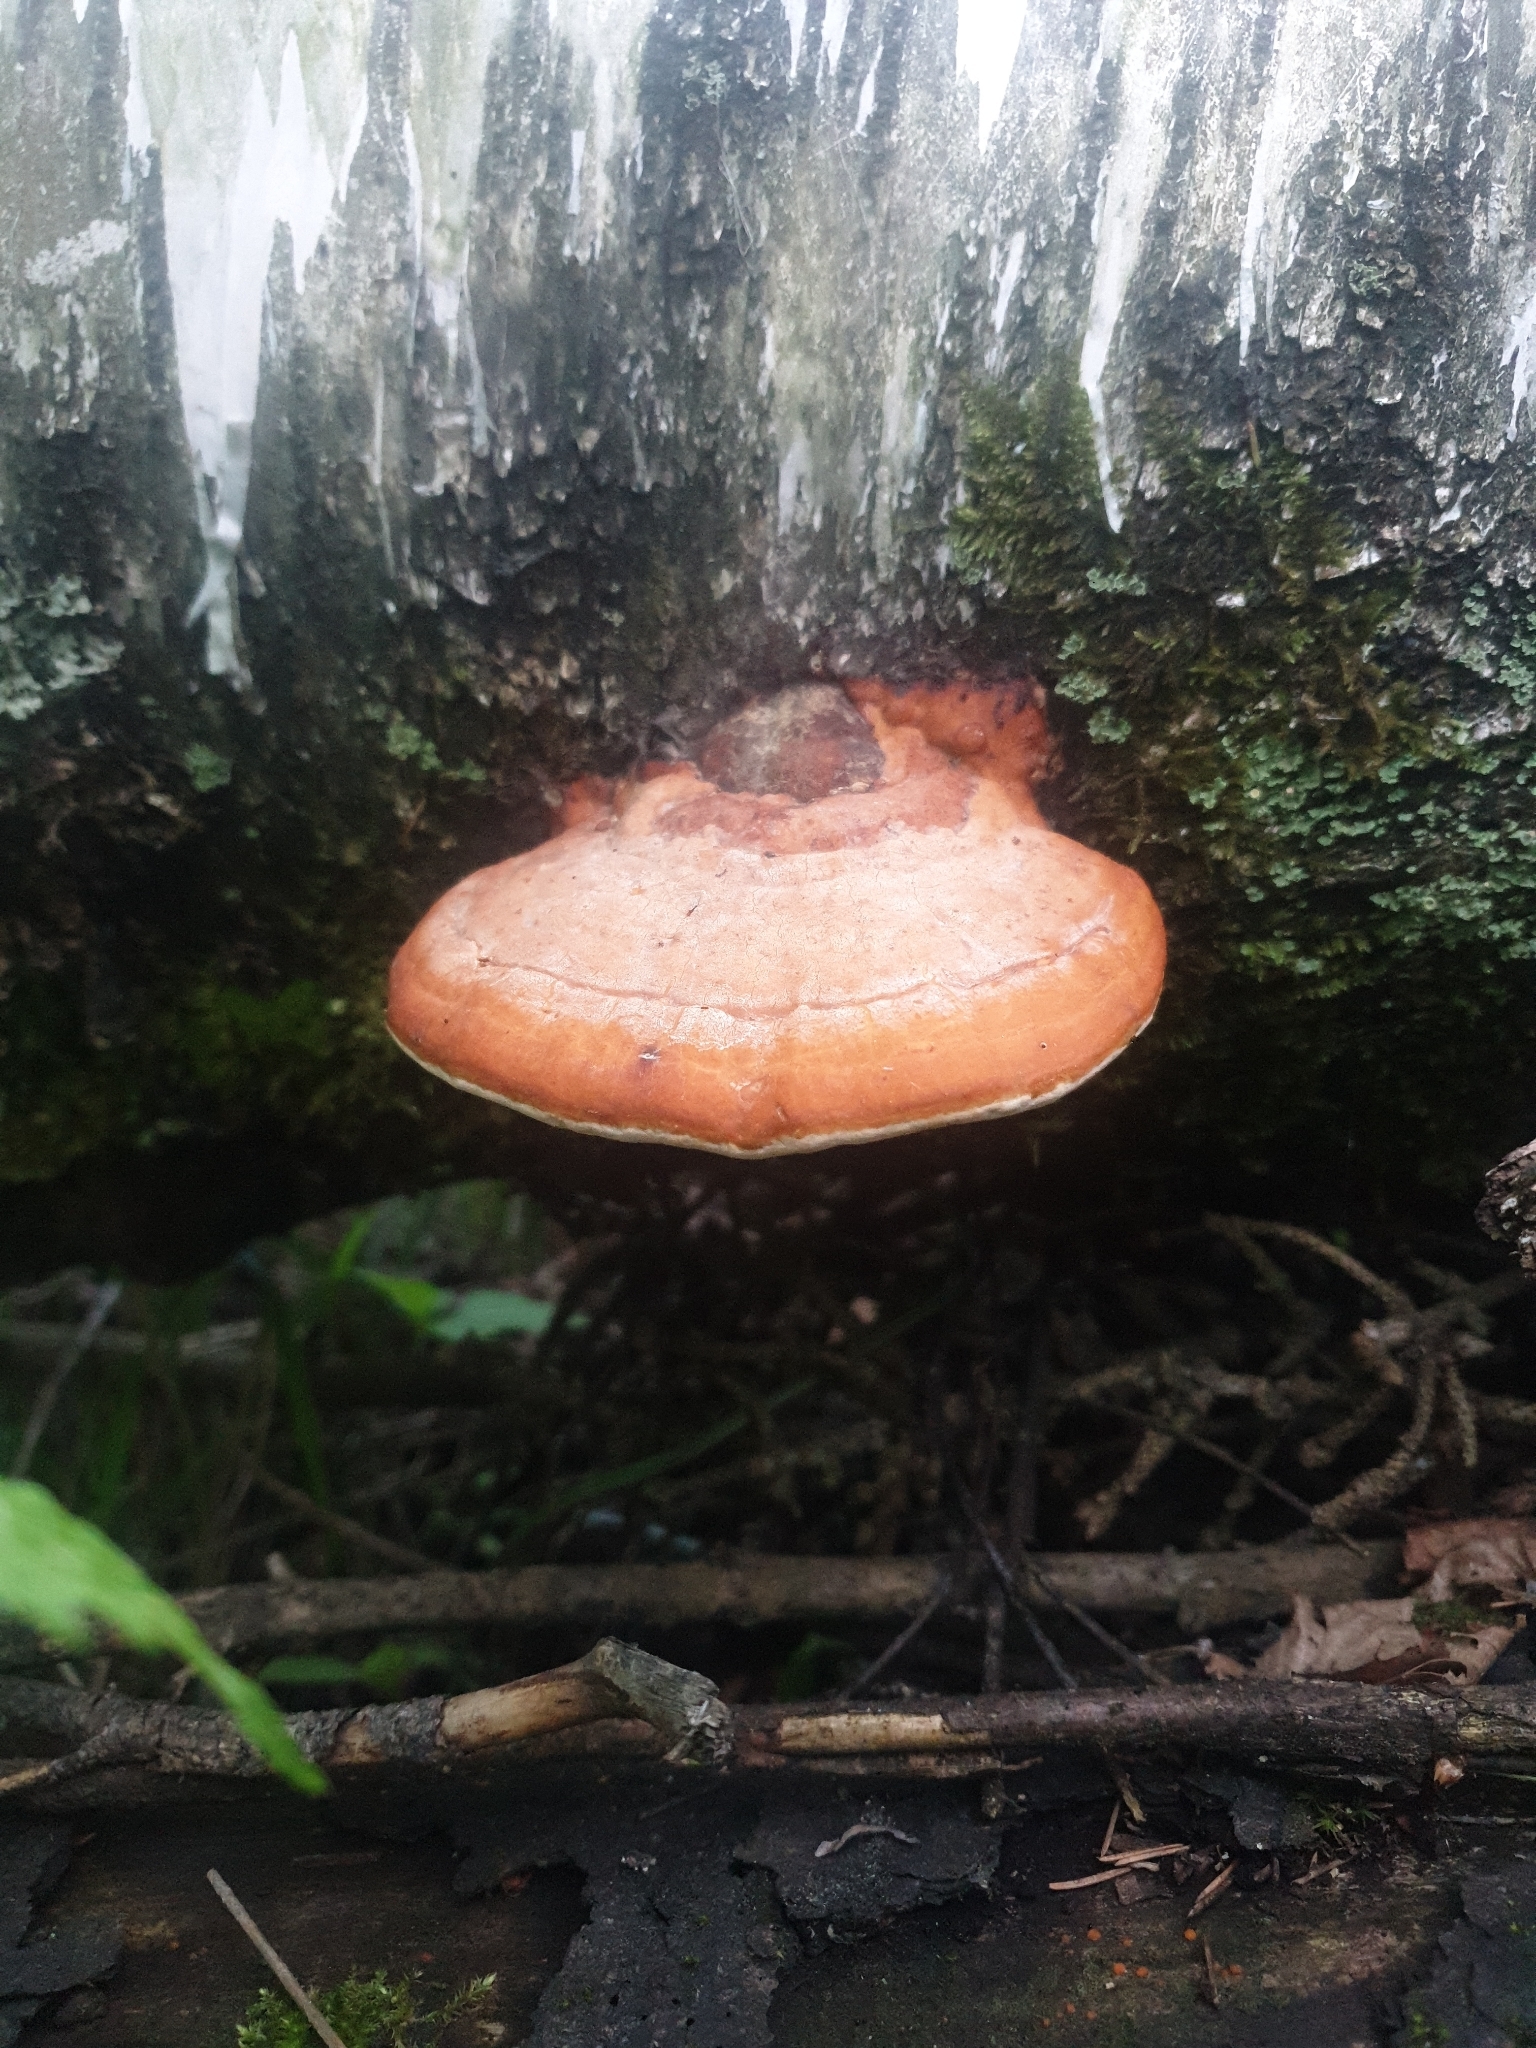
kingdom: Fungi
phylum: Basidiomycota
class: Agaricomycetes
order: Polyporales
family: Fomitopsidaceae
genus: Fomitopsis
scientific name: Fomitopsis pinicola
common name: Red-belted bracket
